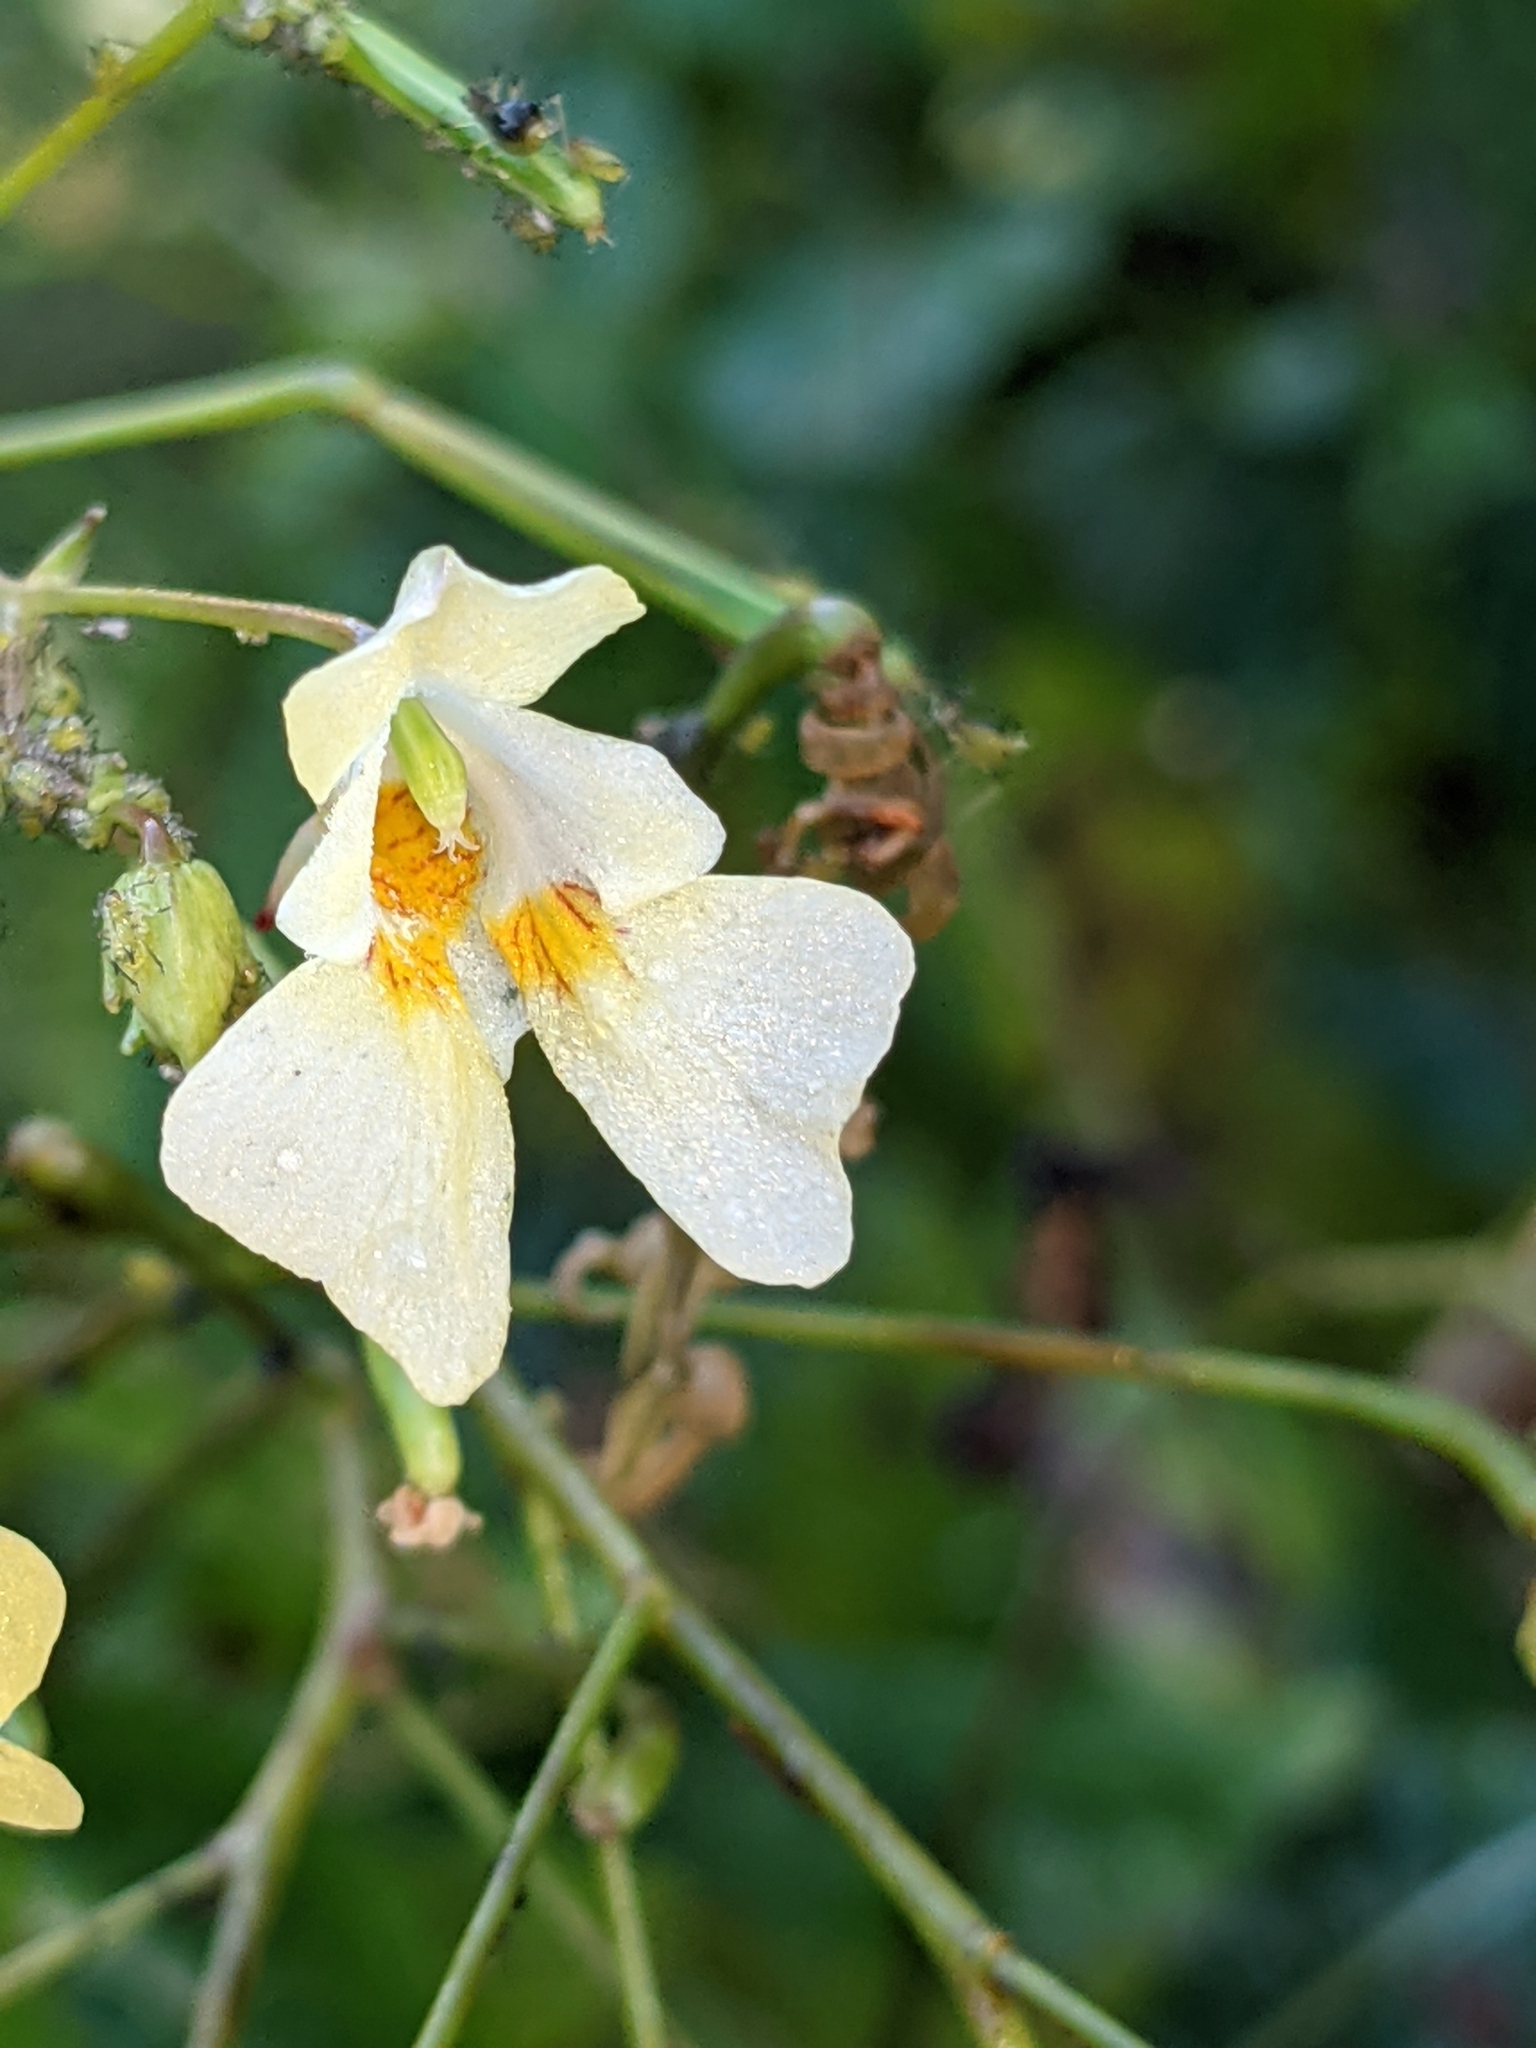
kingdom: Plantae
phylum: Tracheophyta
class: Magnoliopsida
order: Ericales
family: Balsaminaceae
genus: Impatiens
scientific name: Impatiens parviflora
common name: Small balsam
